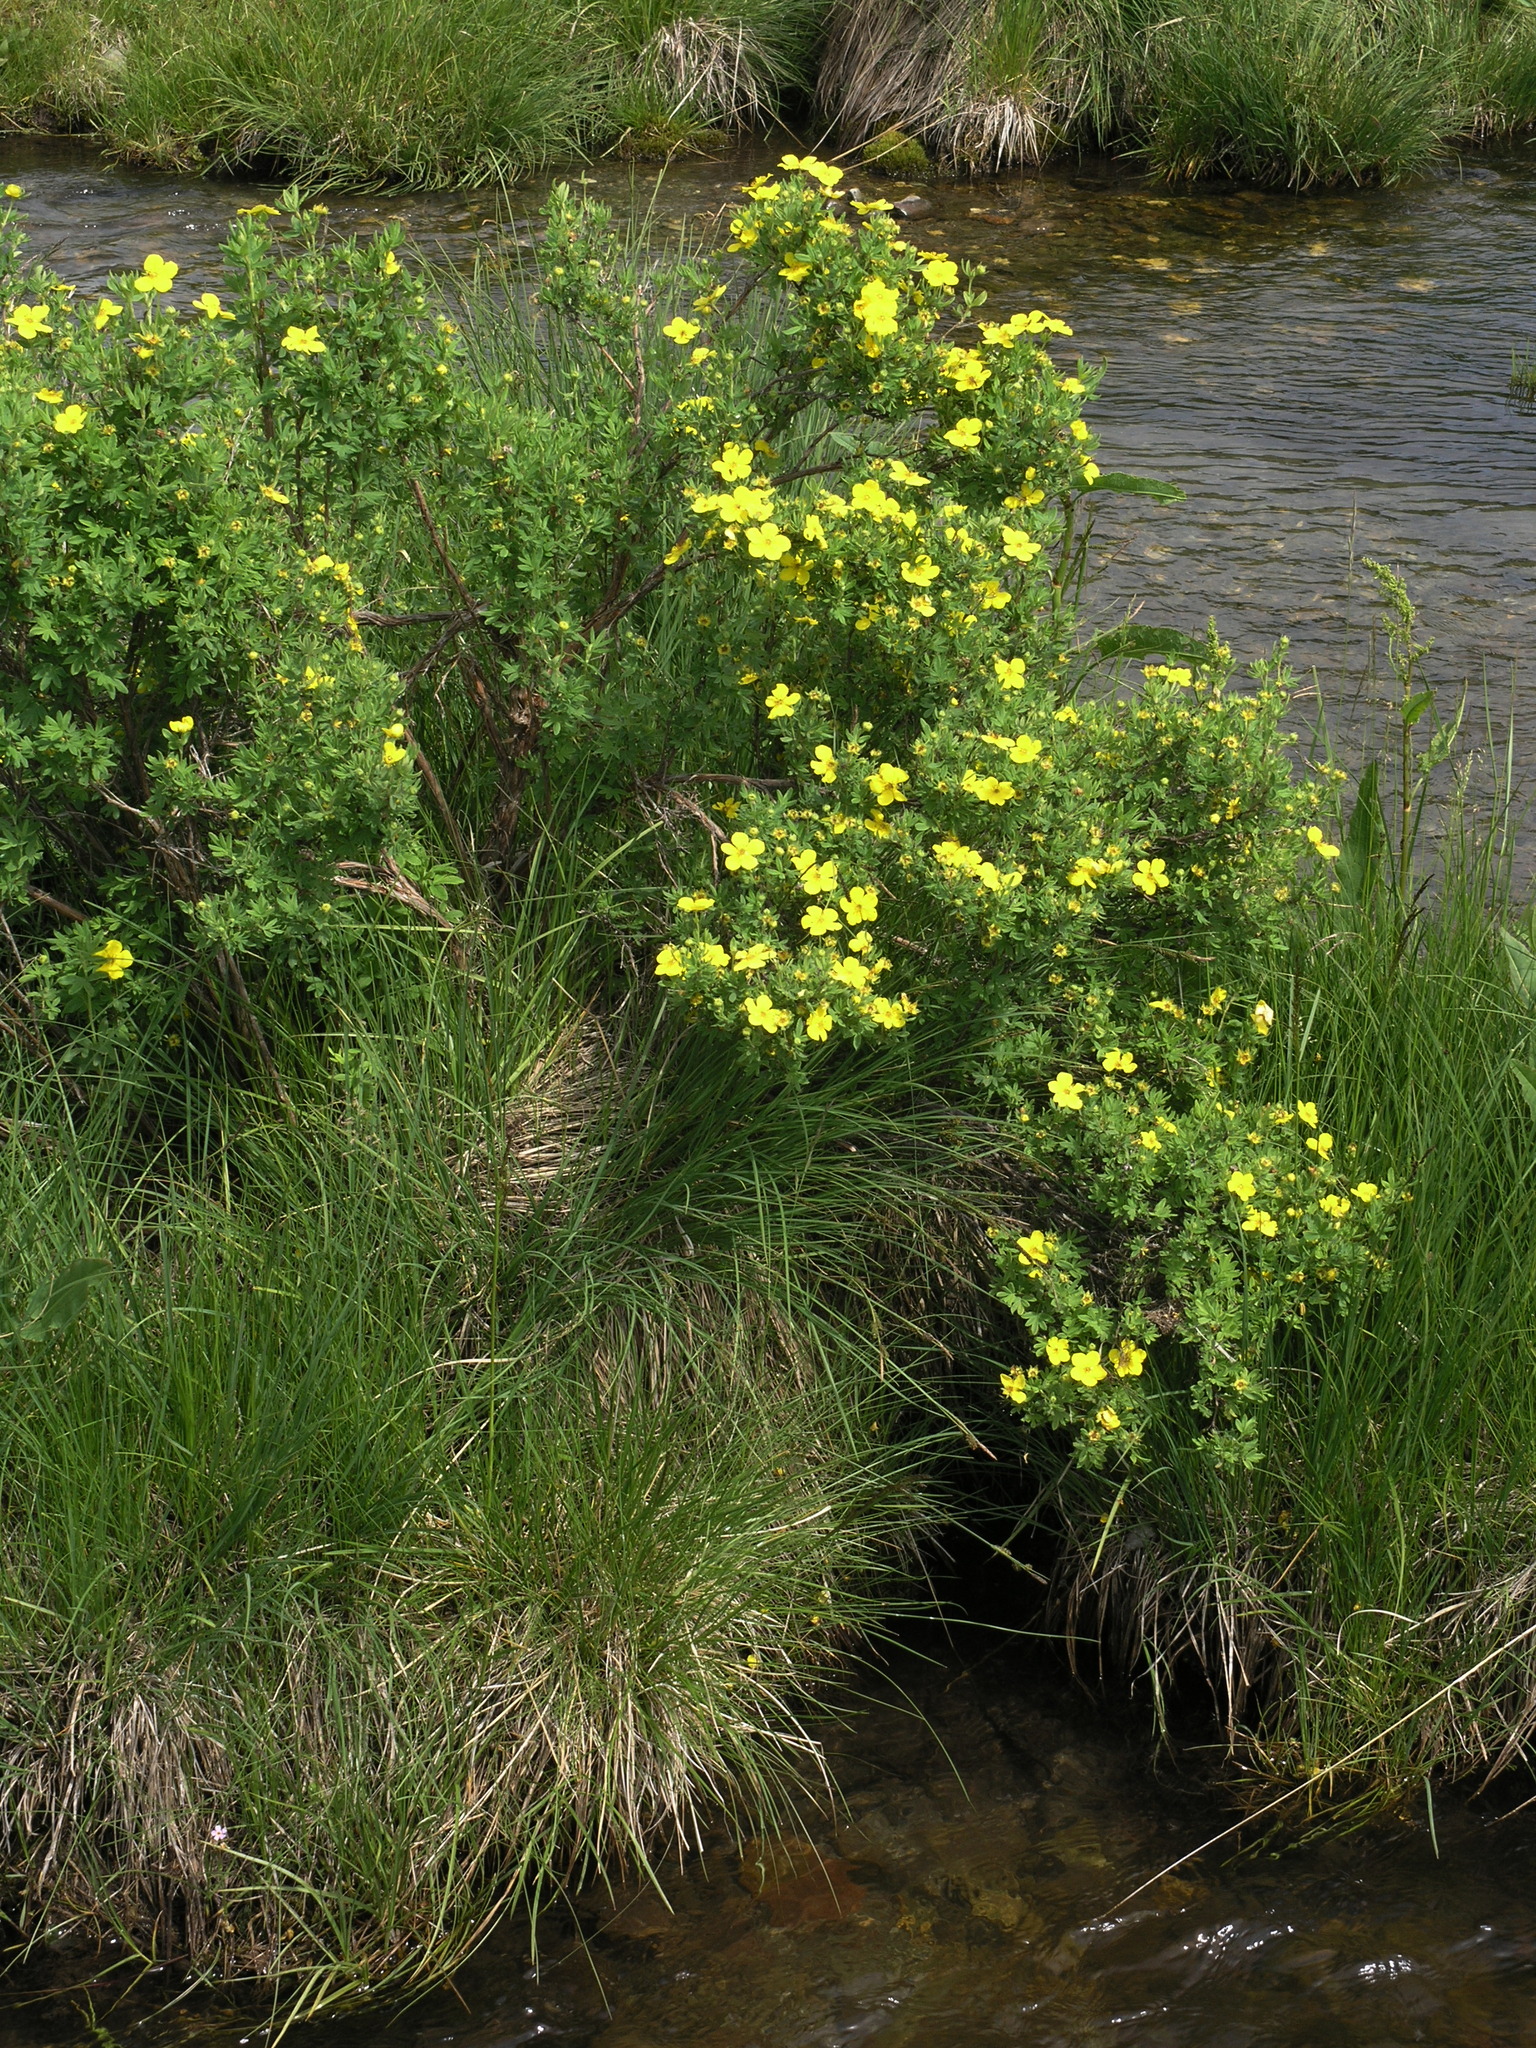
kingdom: Plantae
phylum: Tracheophyta
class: Magnoliopsida
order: Rosales
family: Rosaceae
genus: Dasiphora
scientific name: Dasiphora fruticosa
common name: Shrubby cinquefoil
